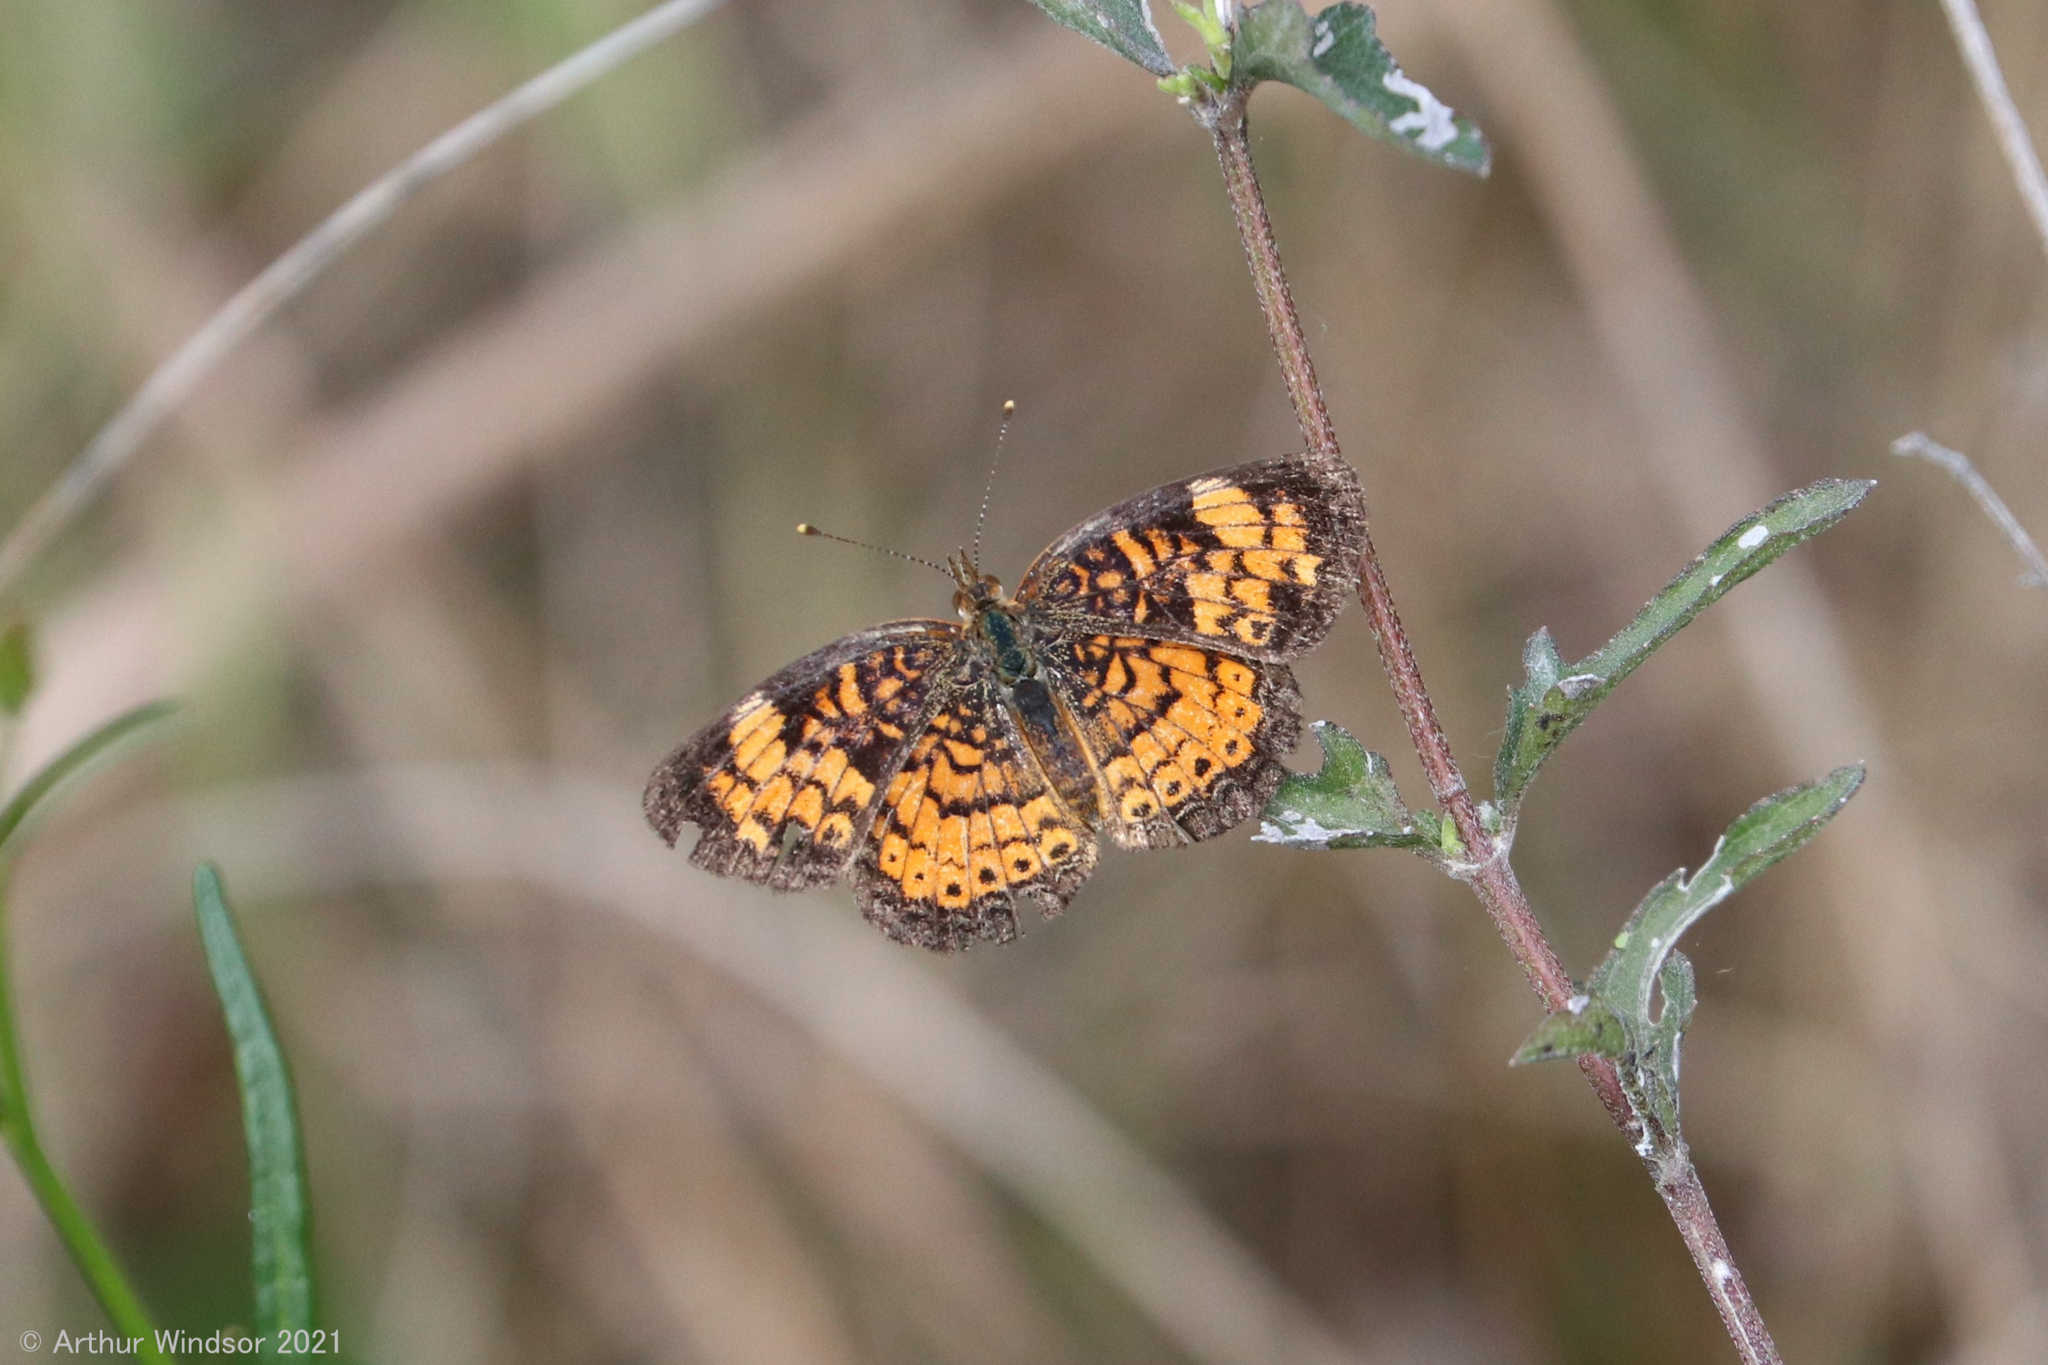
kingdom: Animalia
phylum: Arthropoda
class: Insecta
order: Lepidoptera
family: Nymphalidae
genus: Phyciodes
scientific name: Phyciodes tharos
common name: Pearl crescent
